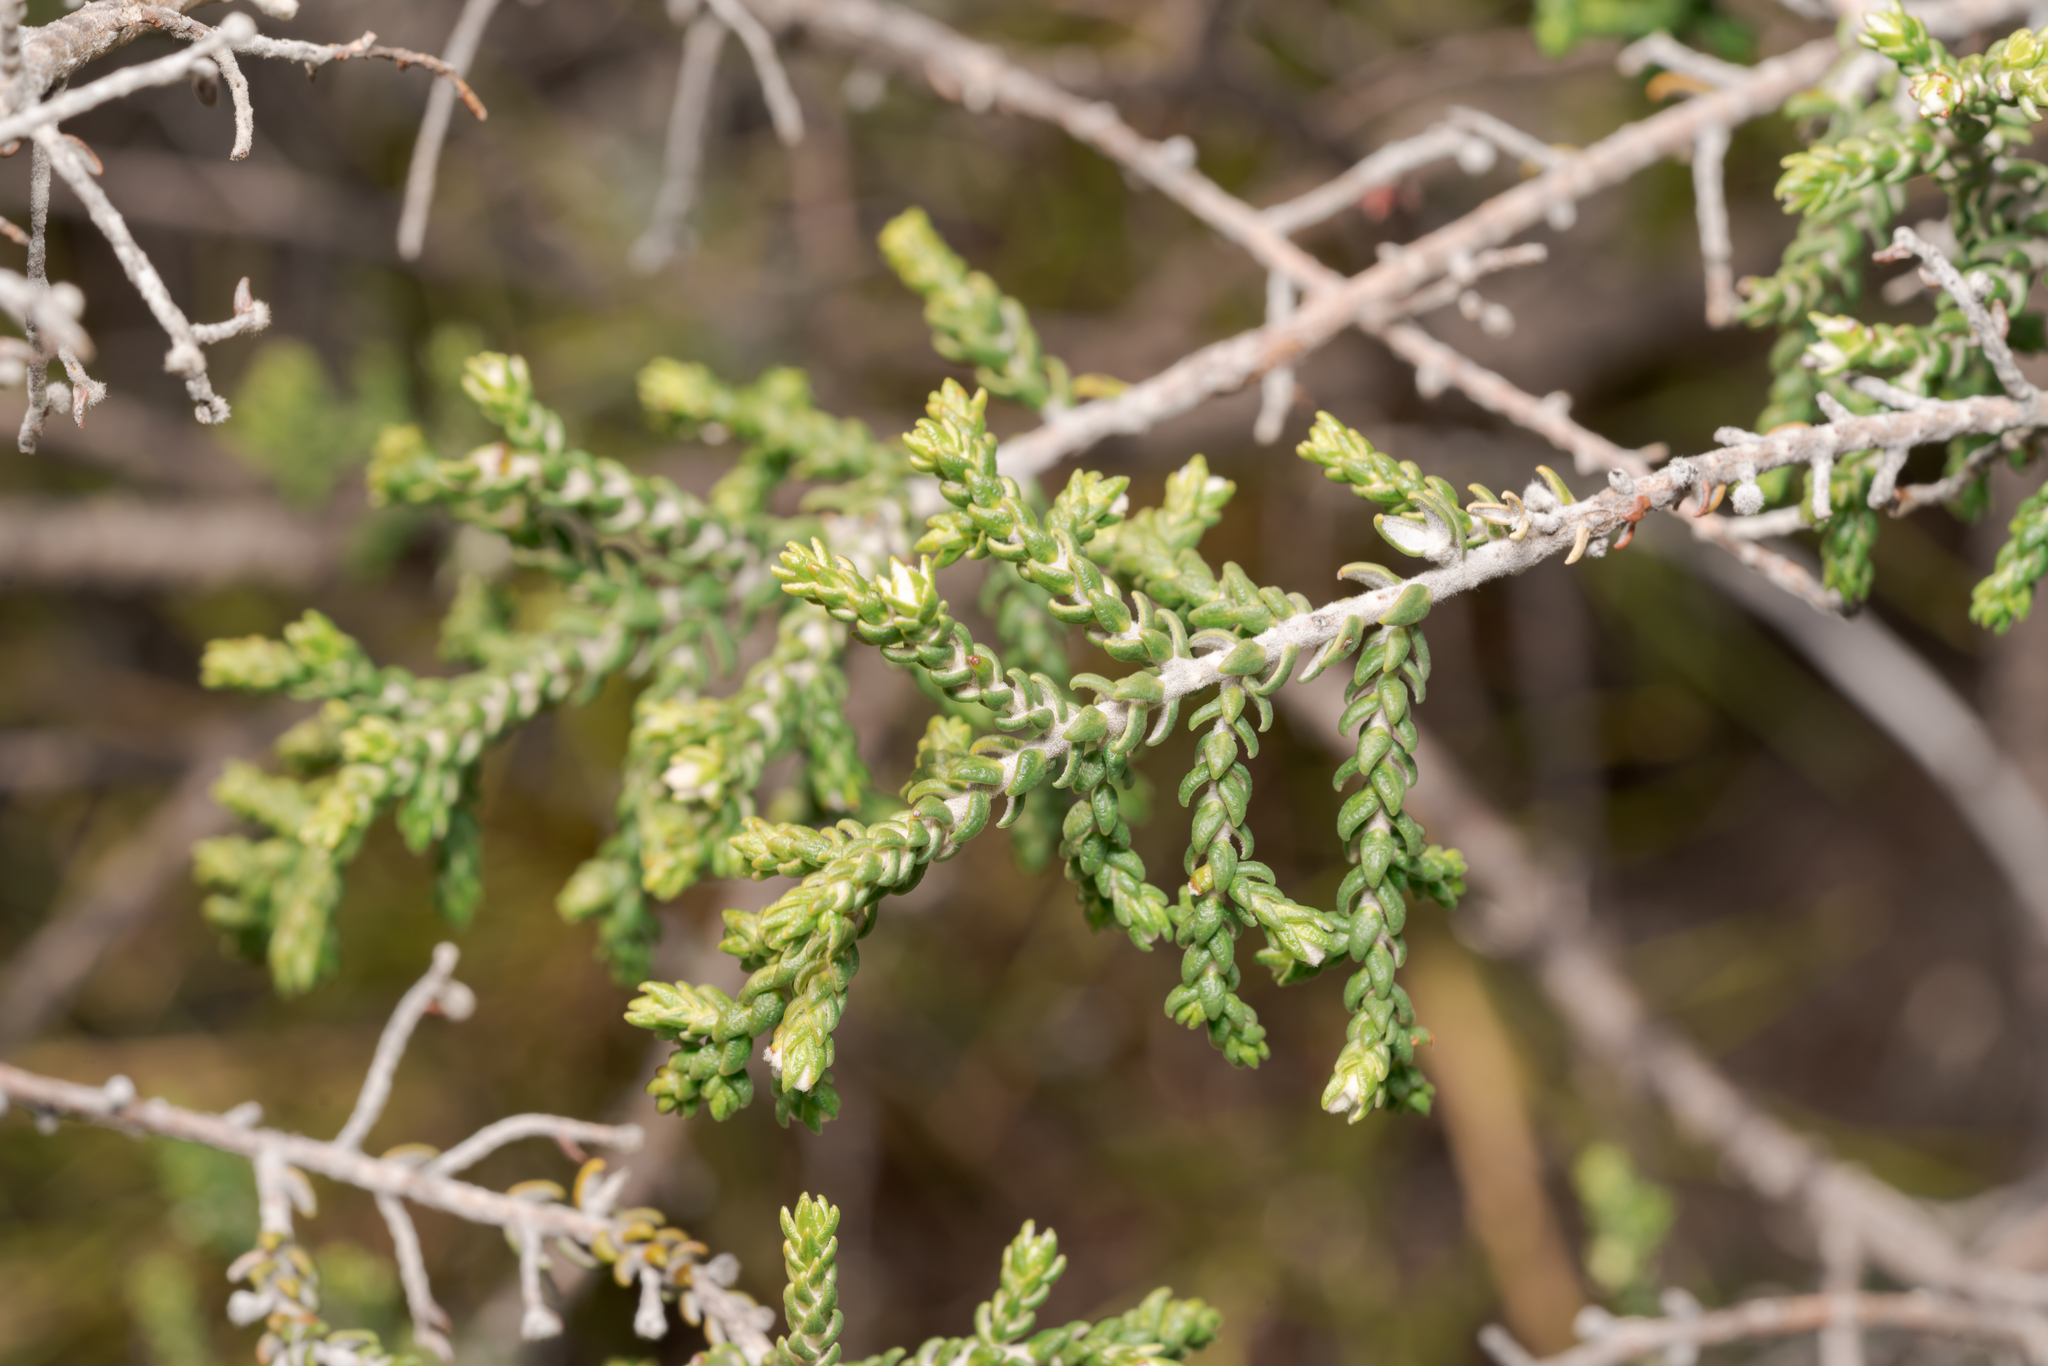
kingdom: Plantae
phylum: Tracheophyta
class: Magnoliopsida
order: Malvales
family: Thymelaeaceae
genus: Thymelaea
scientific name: Thymelaea hirsuta
